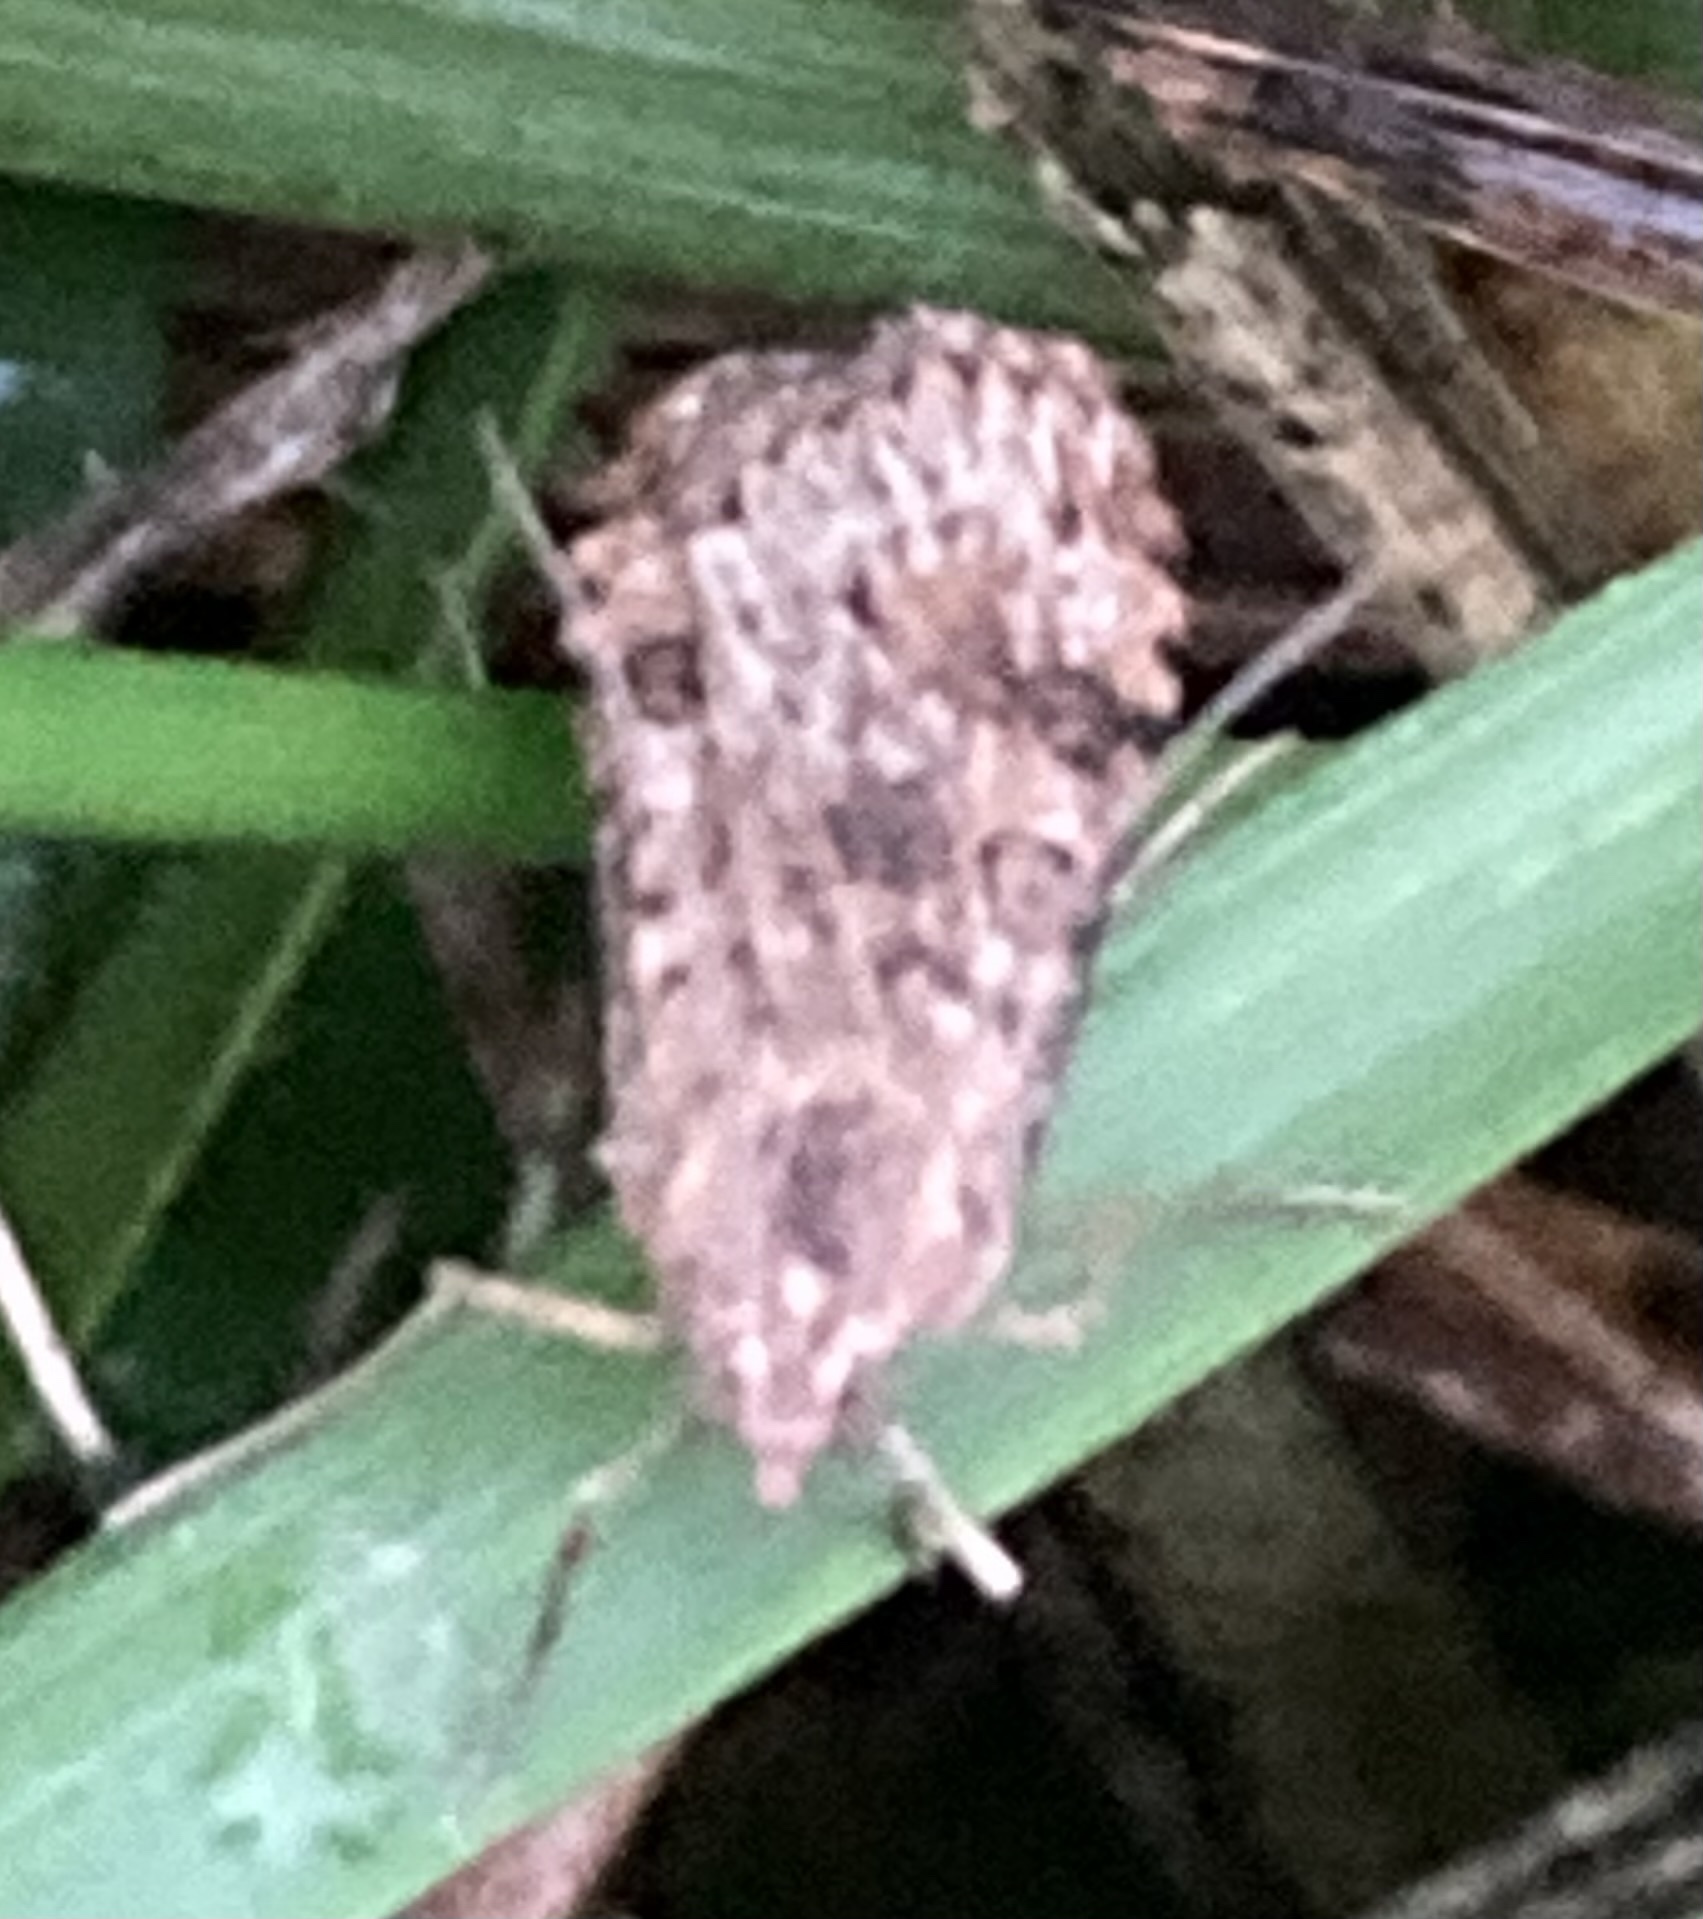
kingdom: Animalia
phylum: Arthropoda
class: Insecta
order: Lepidoptera
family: Crambidae
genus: Nomophila
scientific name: Nomophila nearctica
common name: American rush veneer
